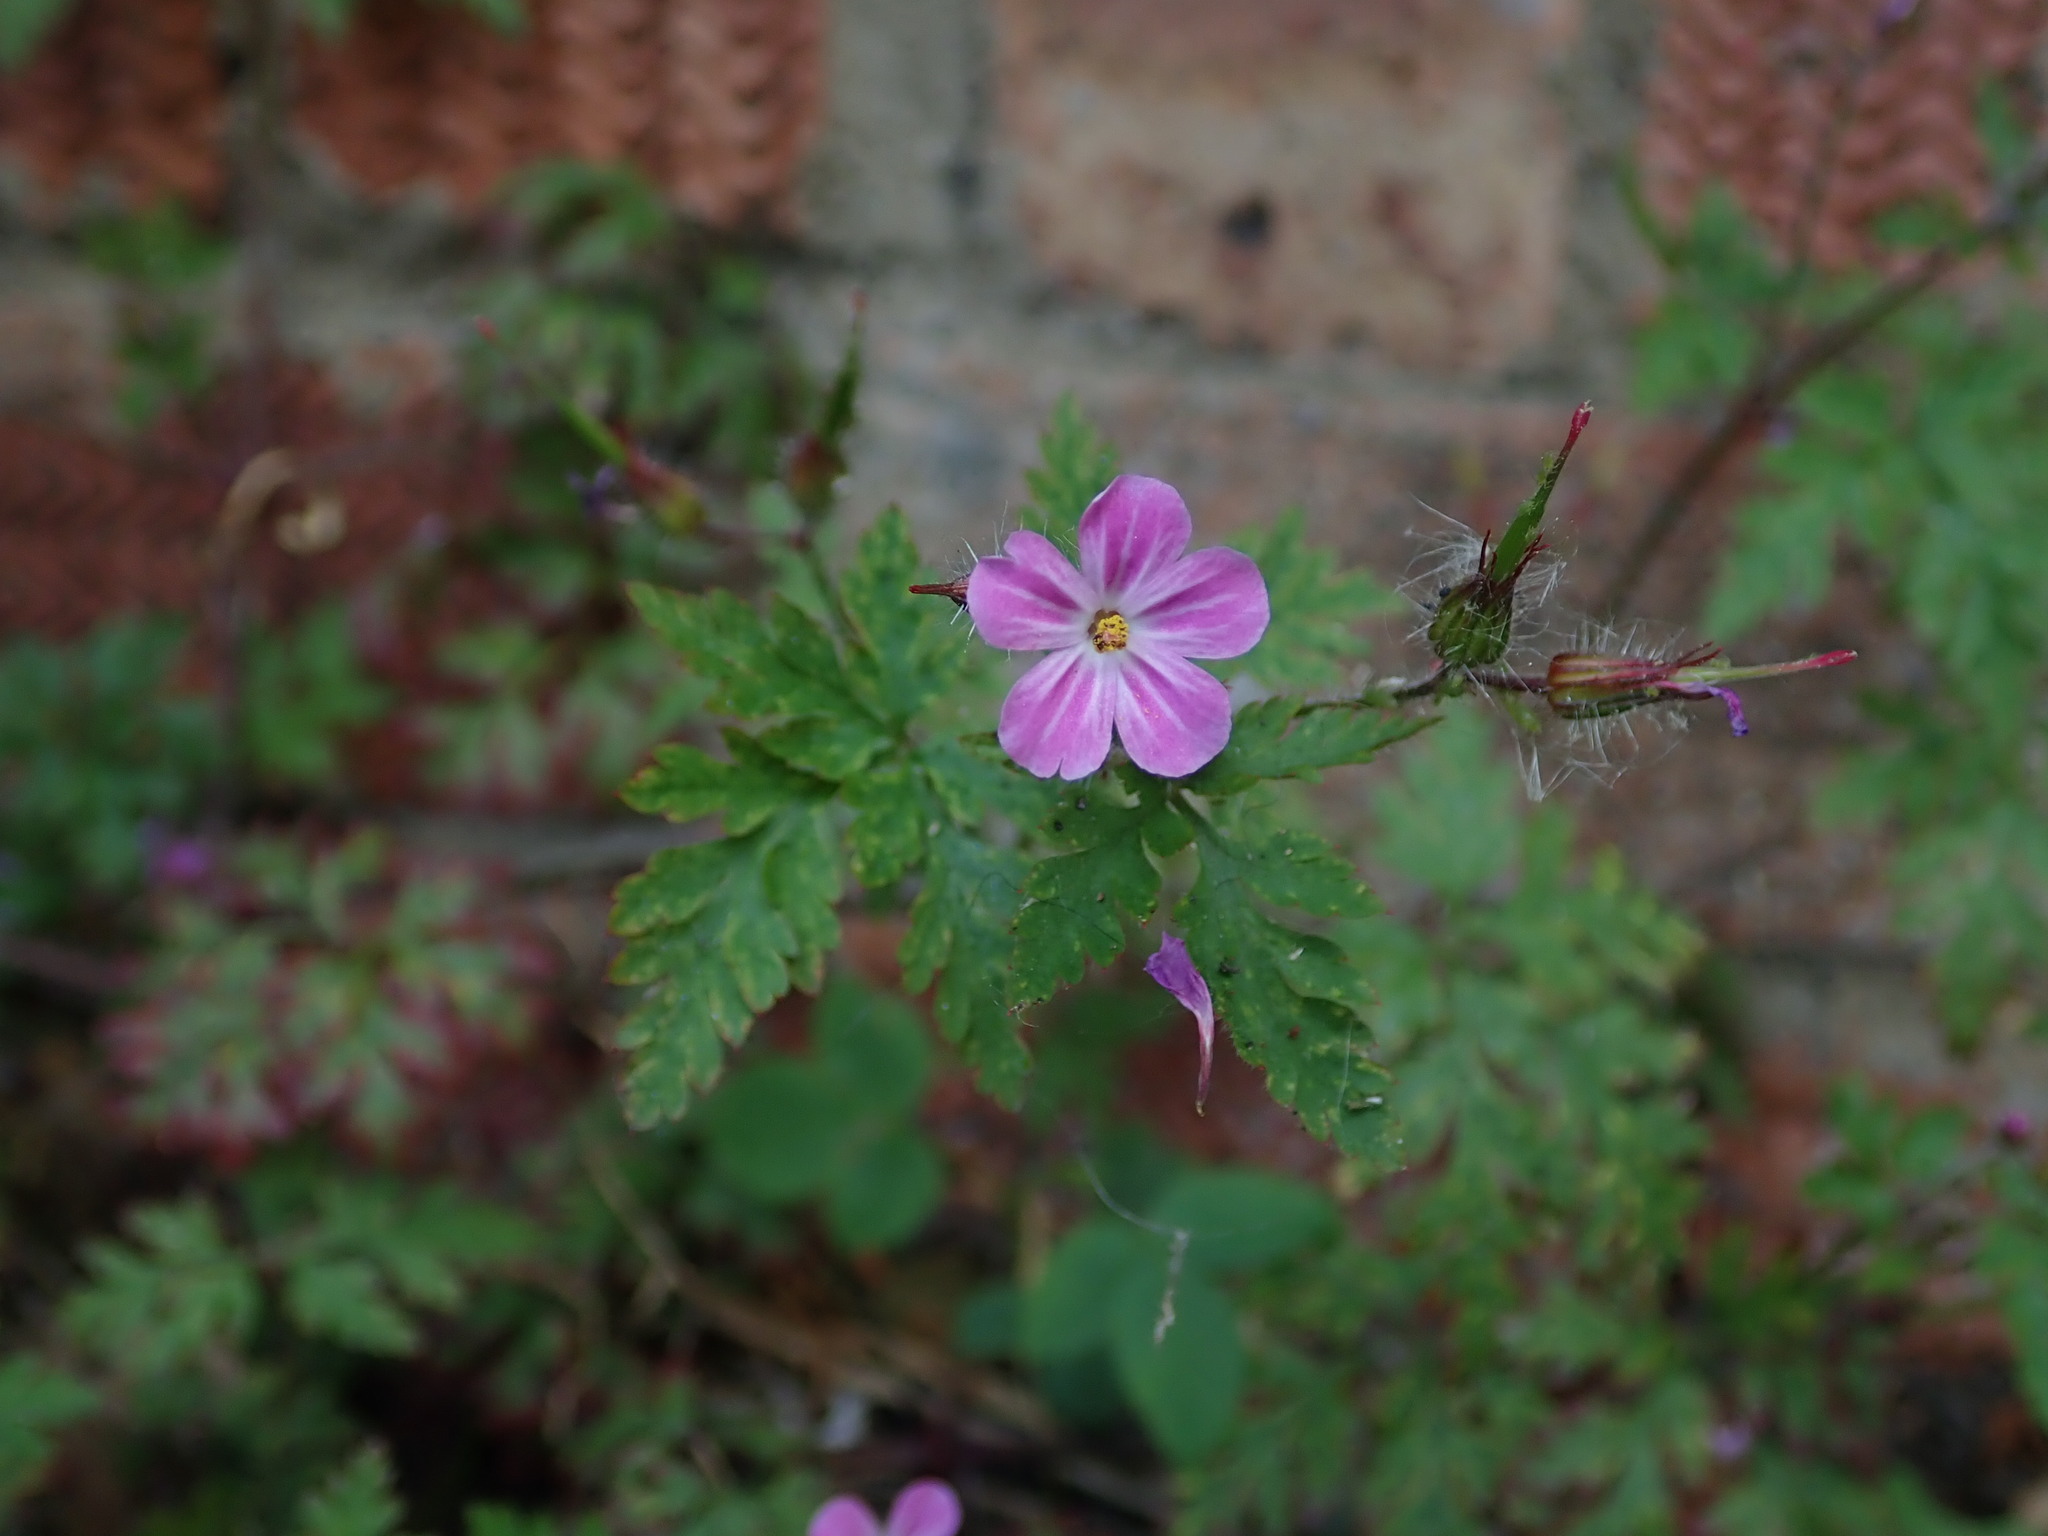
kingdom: Plantae
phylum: Tracheophyta
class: Magnoliopsida
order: Geraniales
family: Geraniaceae
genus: Geranium
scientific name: Geranium robertianum
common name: Herb-robert
